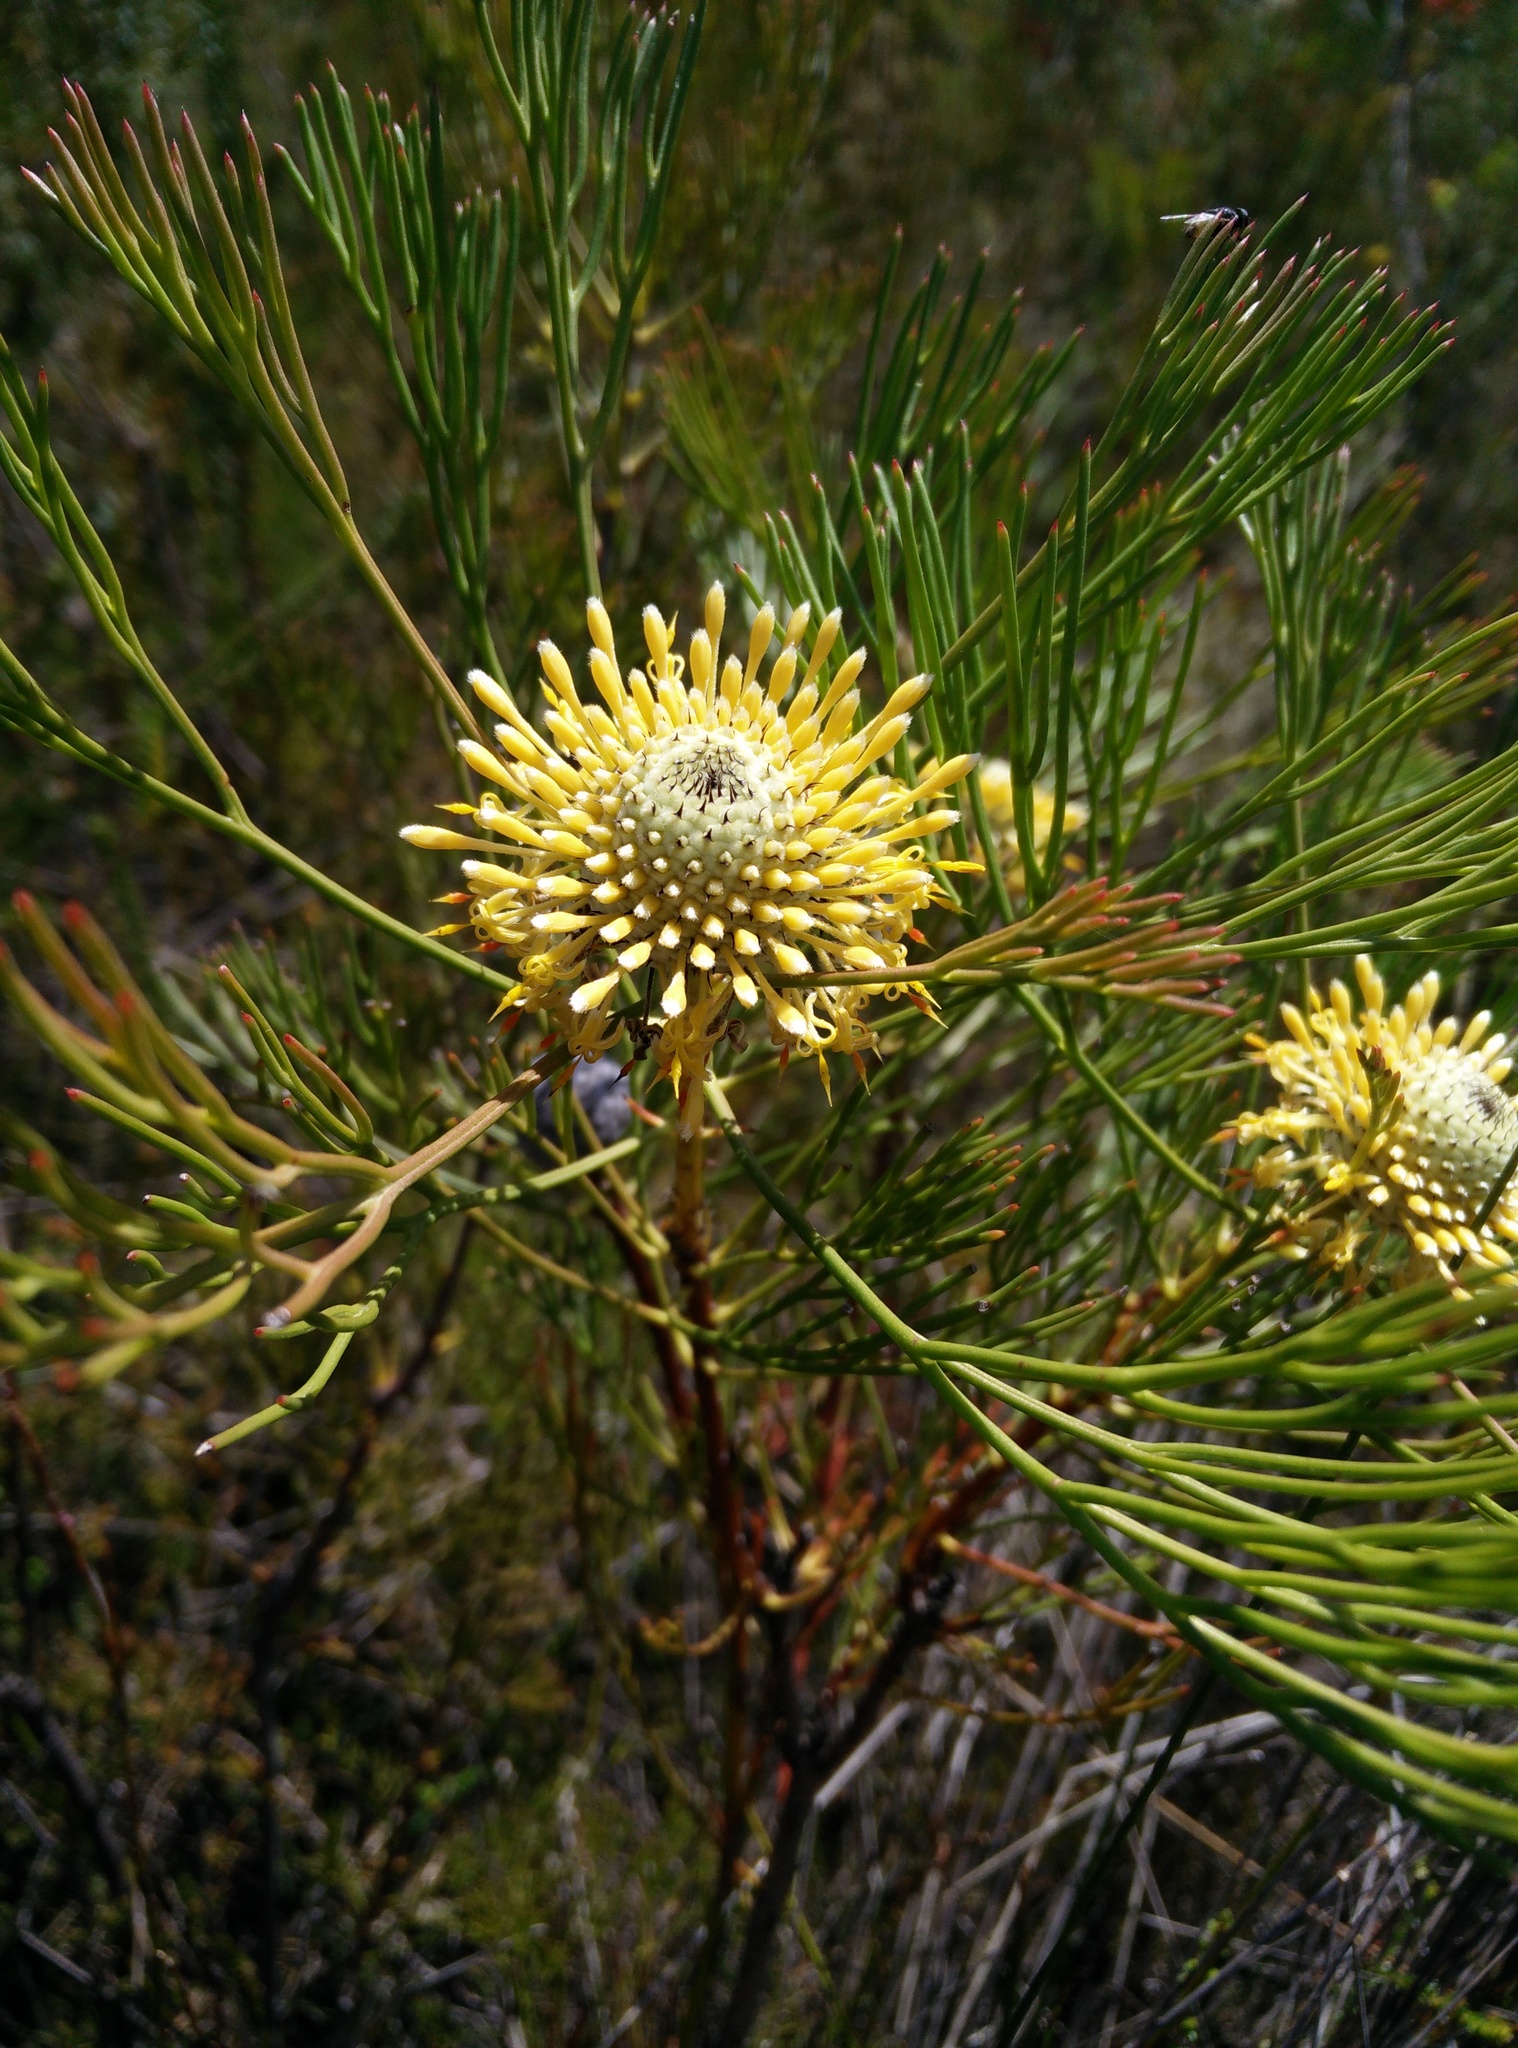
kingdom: Plantae
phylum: Tracheophyta
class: Magnoliopsida
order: Proteales
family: Proteaceae
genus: Isopogon
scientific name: Isopogon anethifolius
